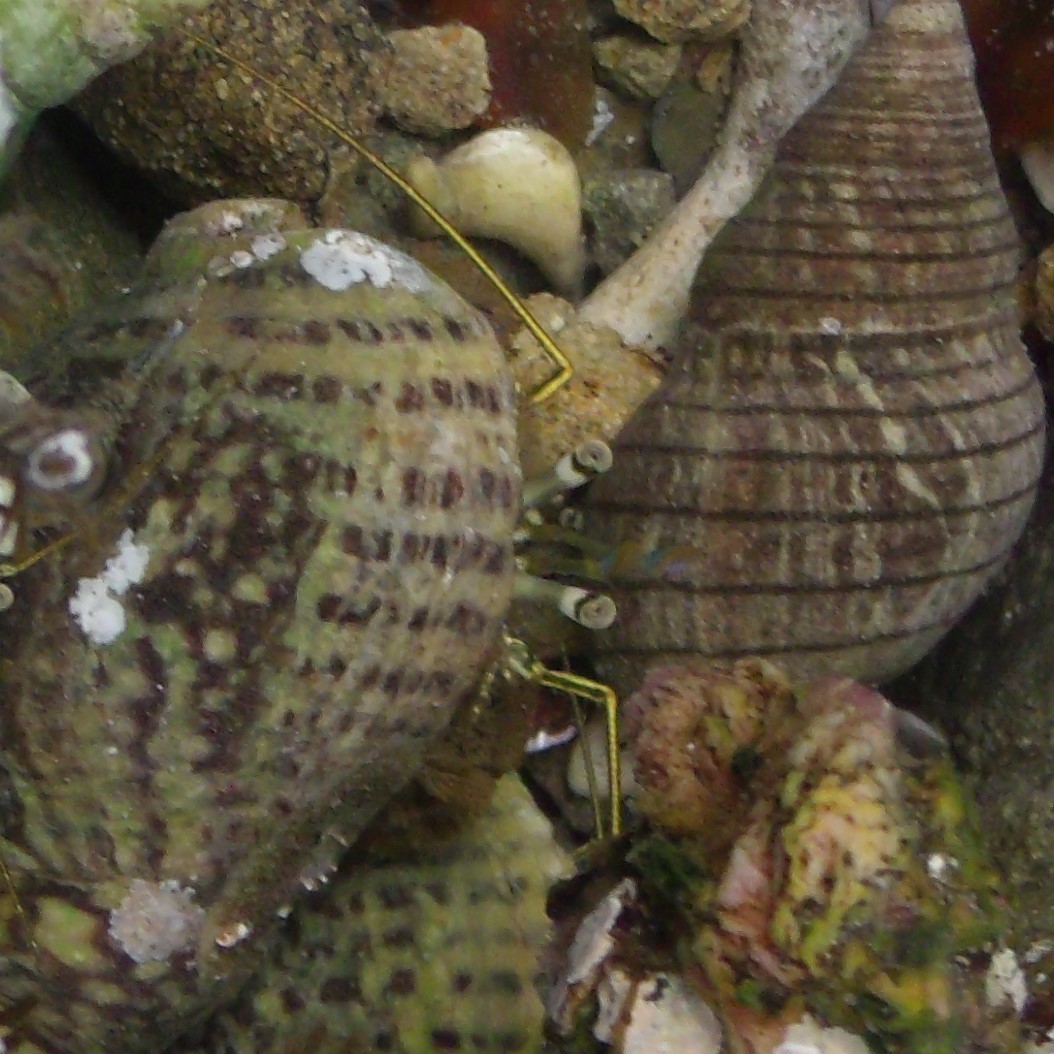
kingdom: Animalia
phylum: Arthropoda
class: Malacostraca
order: Decapoda
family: Paguridae
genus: Pagurus
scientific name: Pagurus novizealandiae
